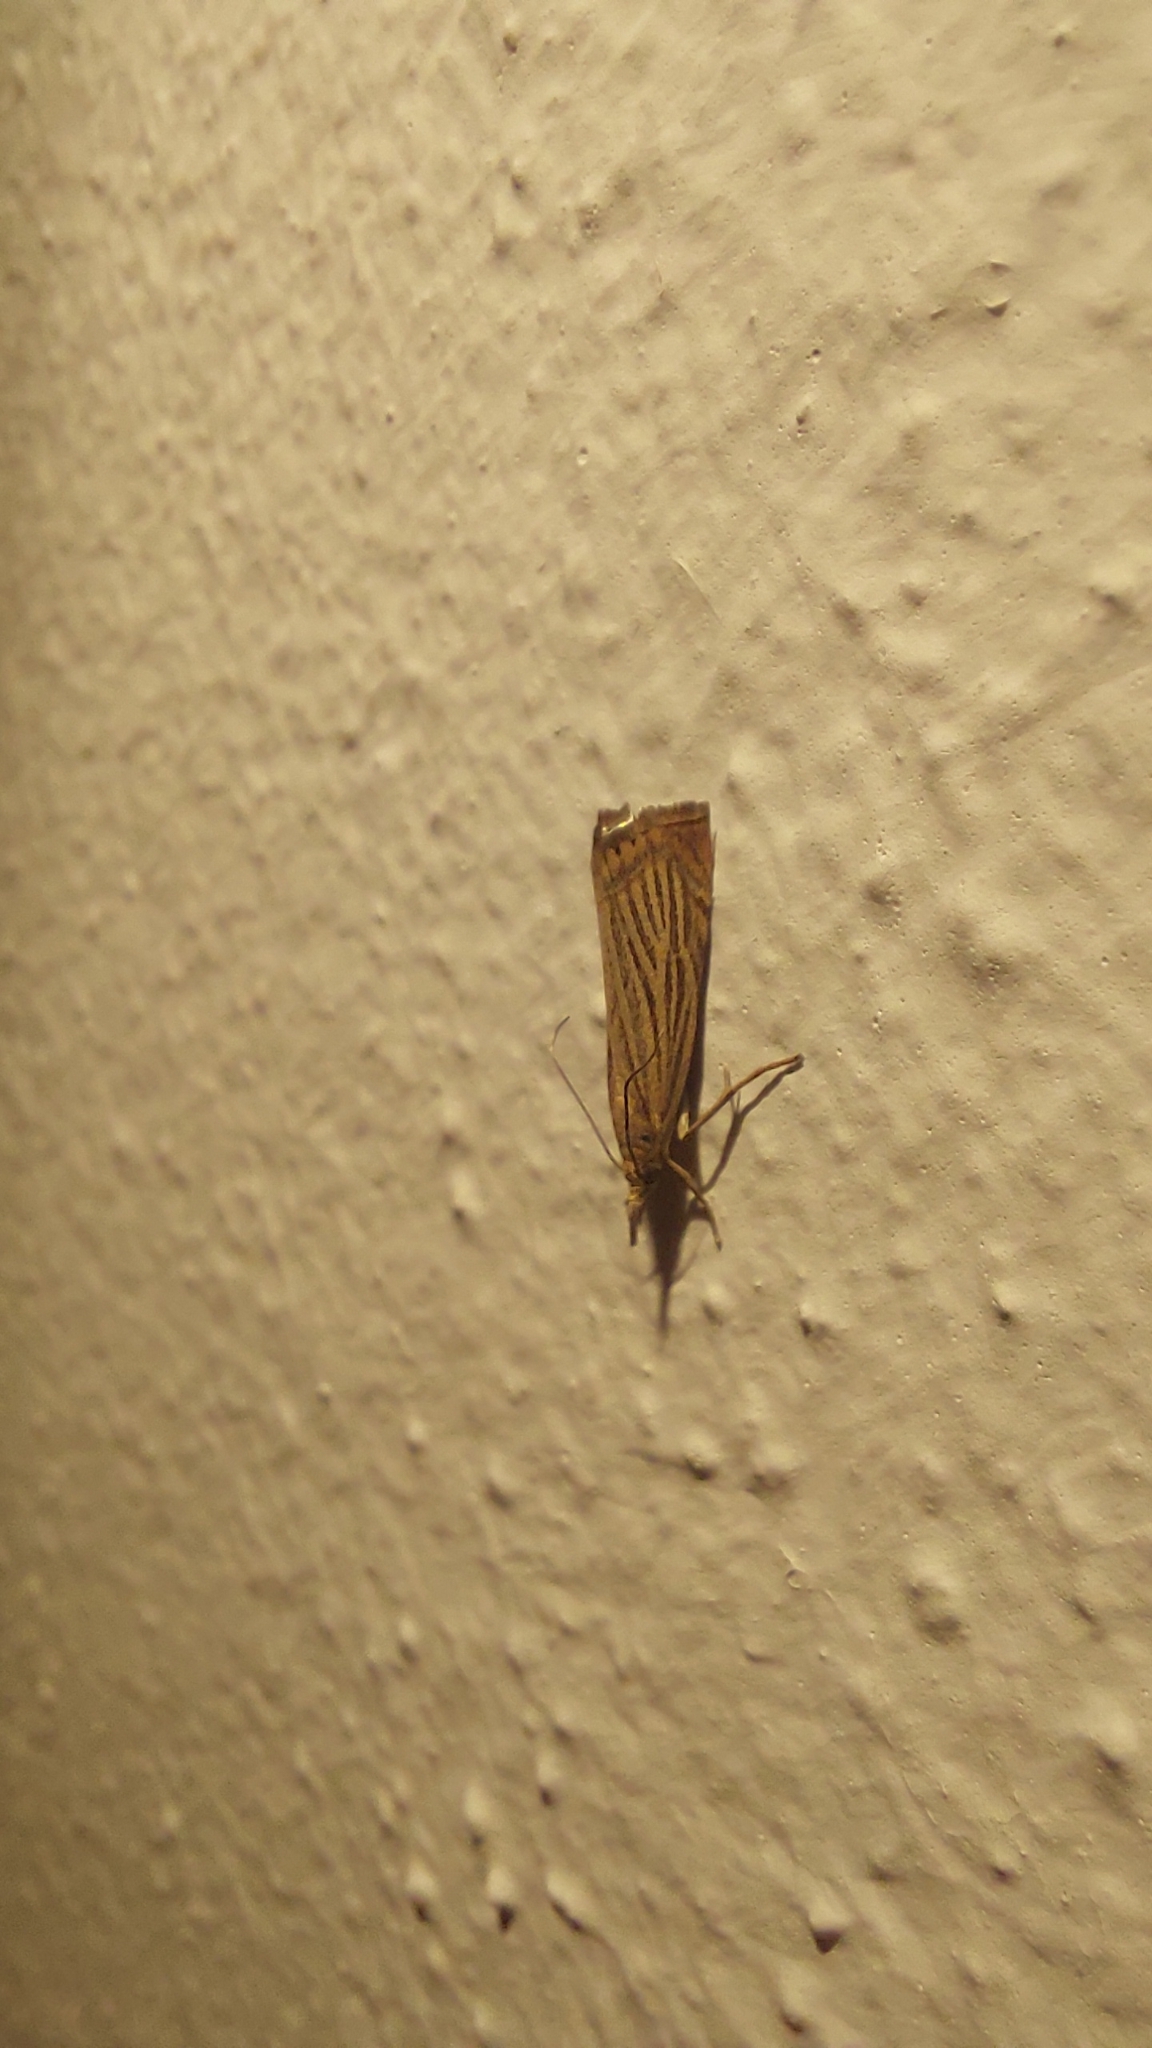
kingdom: Animalia
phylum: Arthropoda
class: Insecta
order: Lepidoptera
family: Crambidae
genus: Chrysoteuchia
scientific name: Chrysoteuchia culmella
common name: Garden grass-veneer
